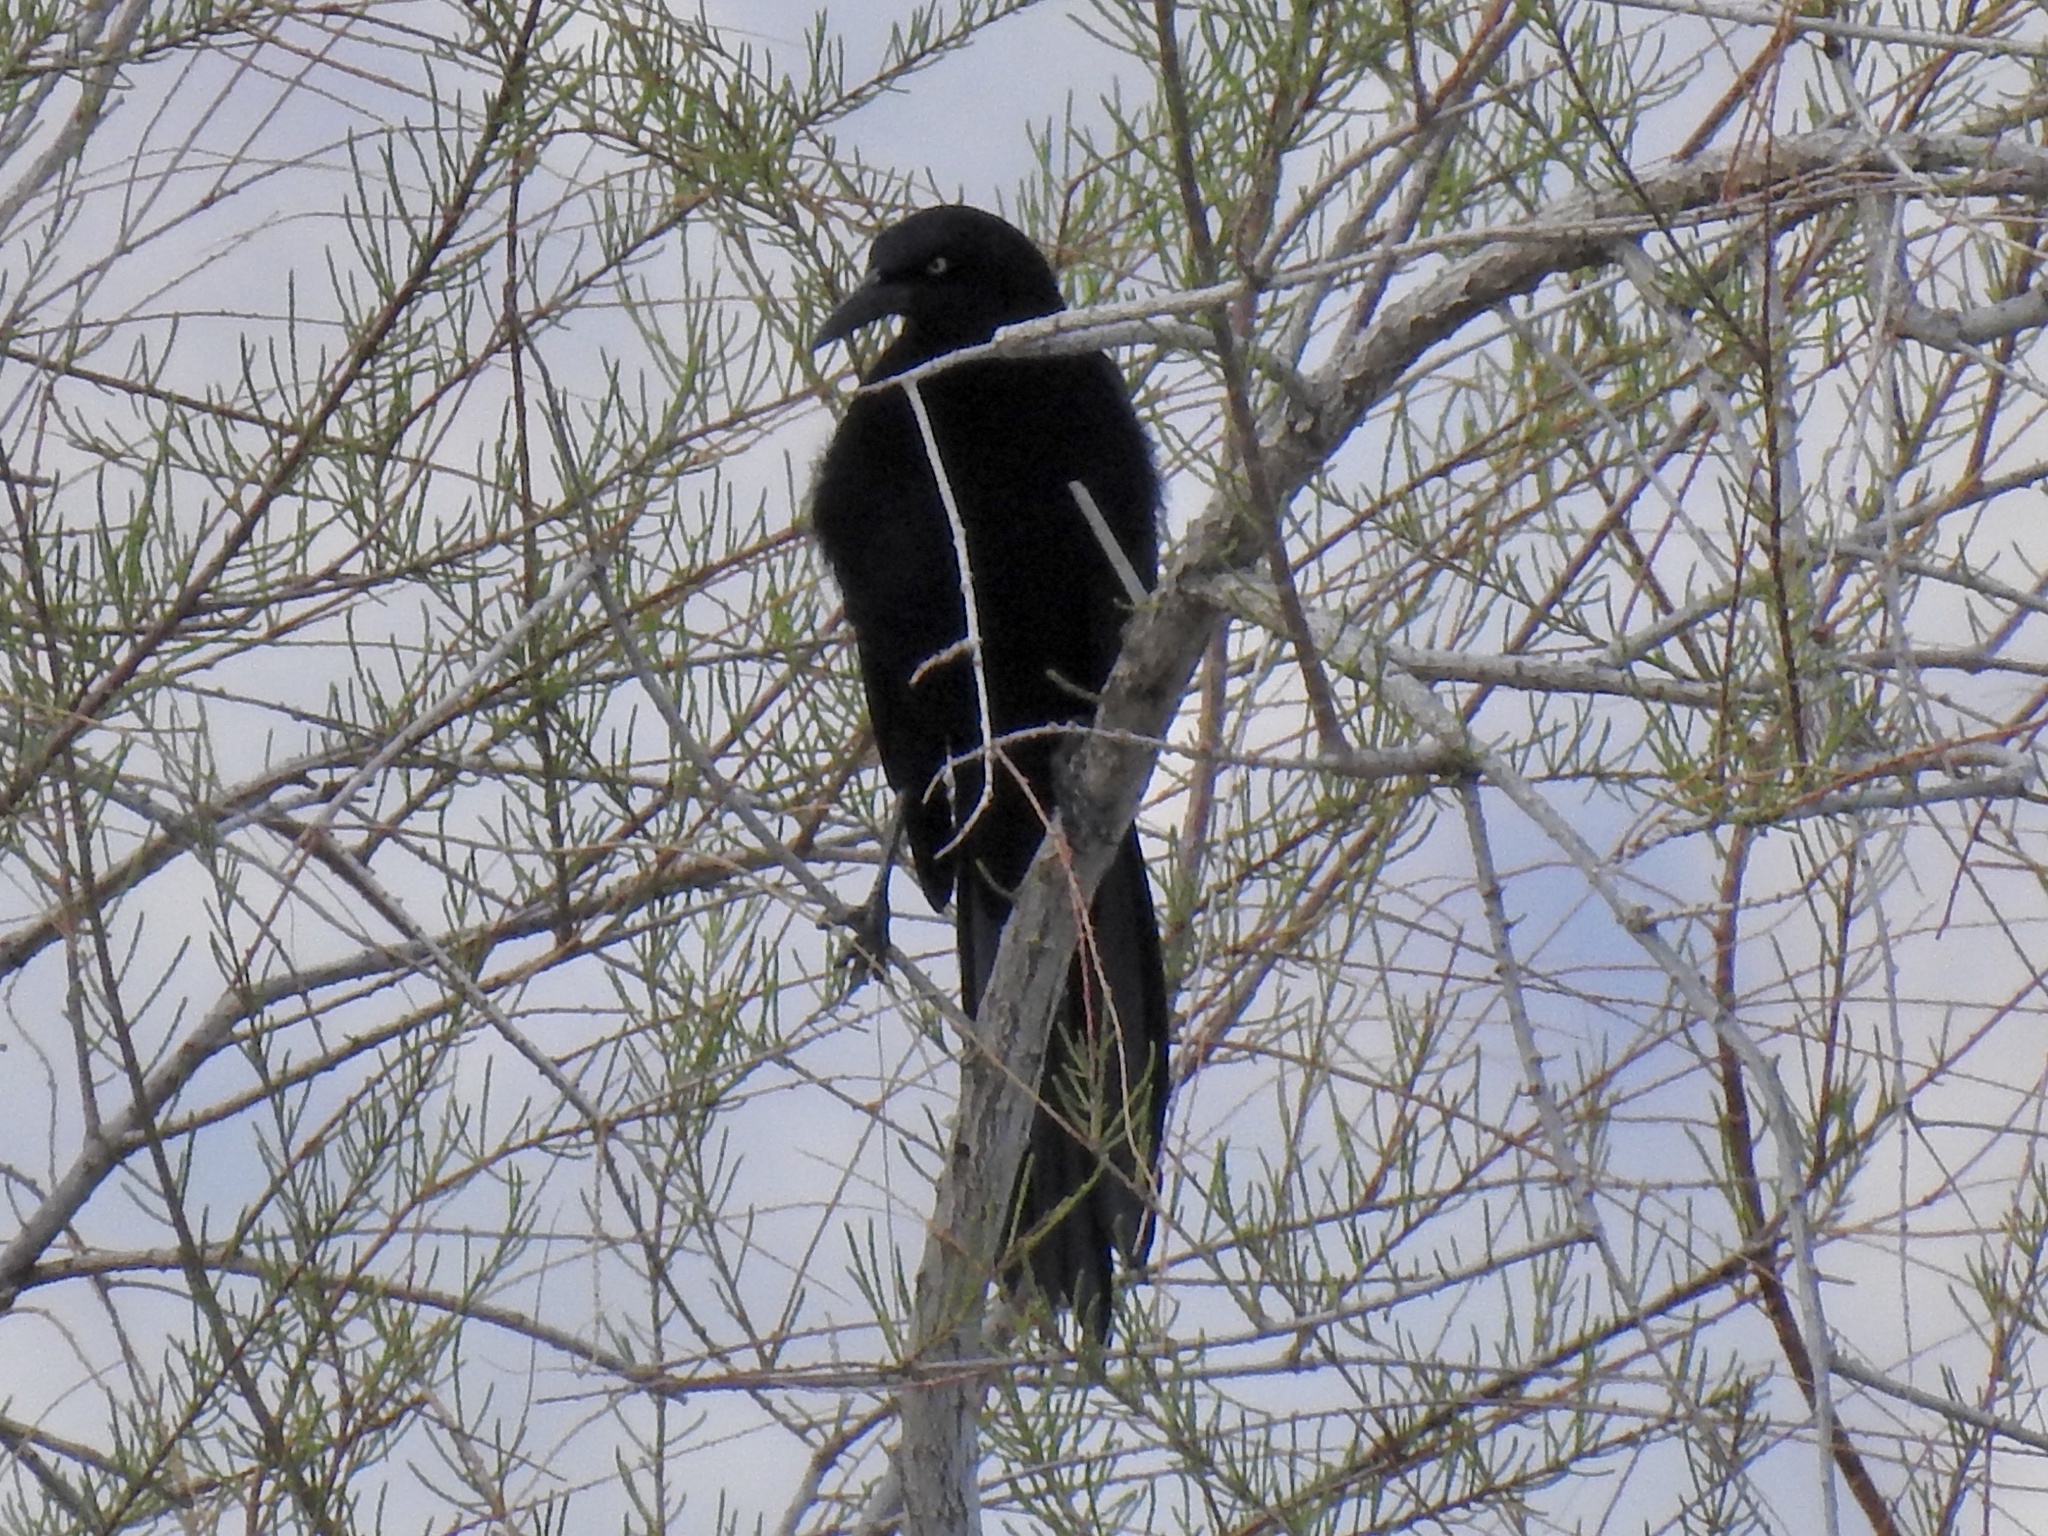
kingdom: Animalia
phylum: Chordata
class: Aves
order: Passeriformes
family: Icteridae
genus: Quiscalus
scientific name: Quiscalus mexicanus
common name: Great-tailed grackle
